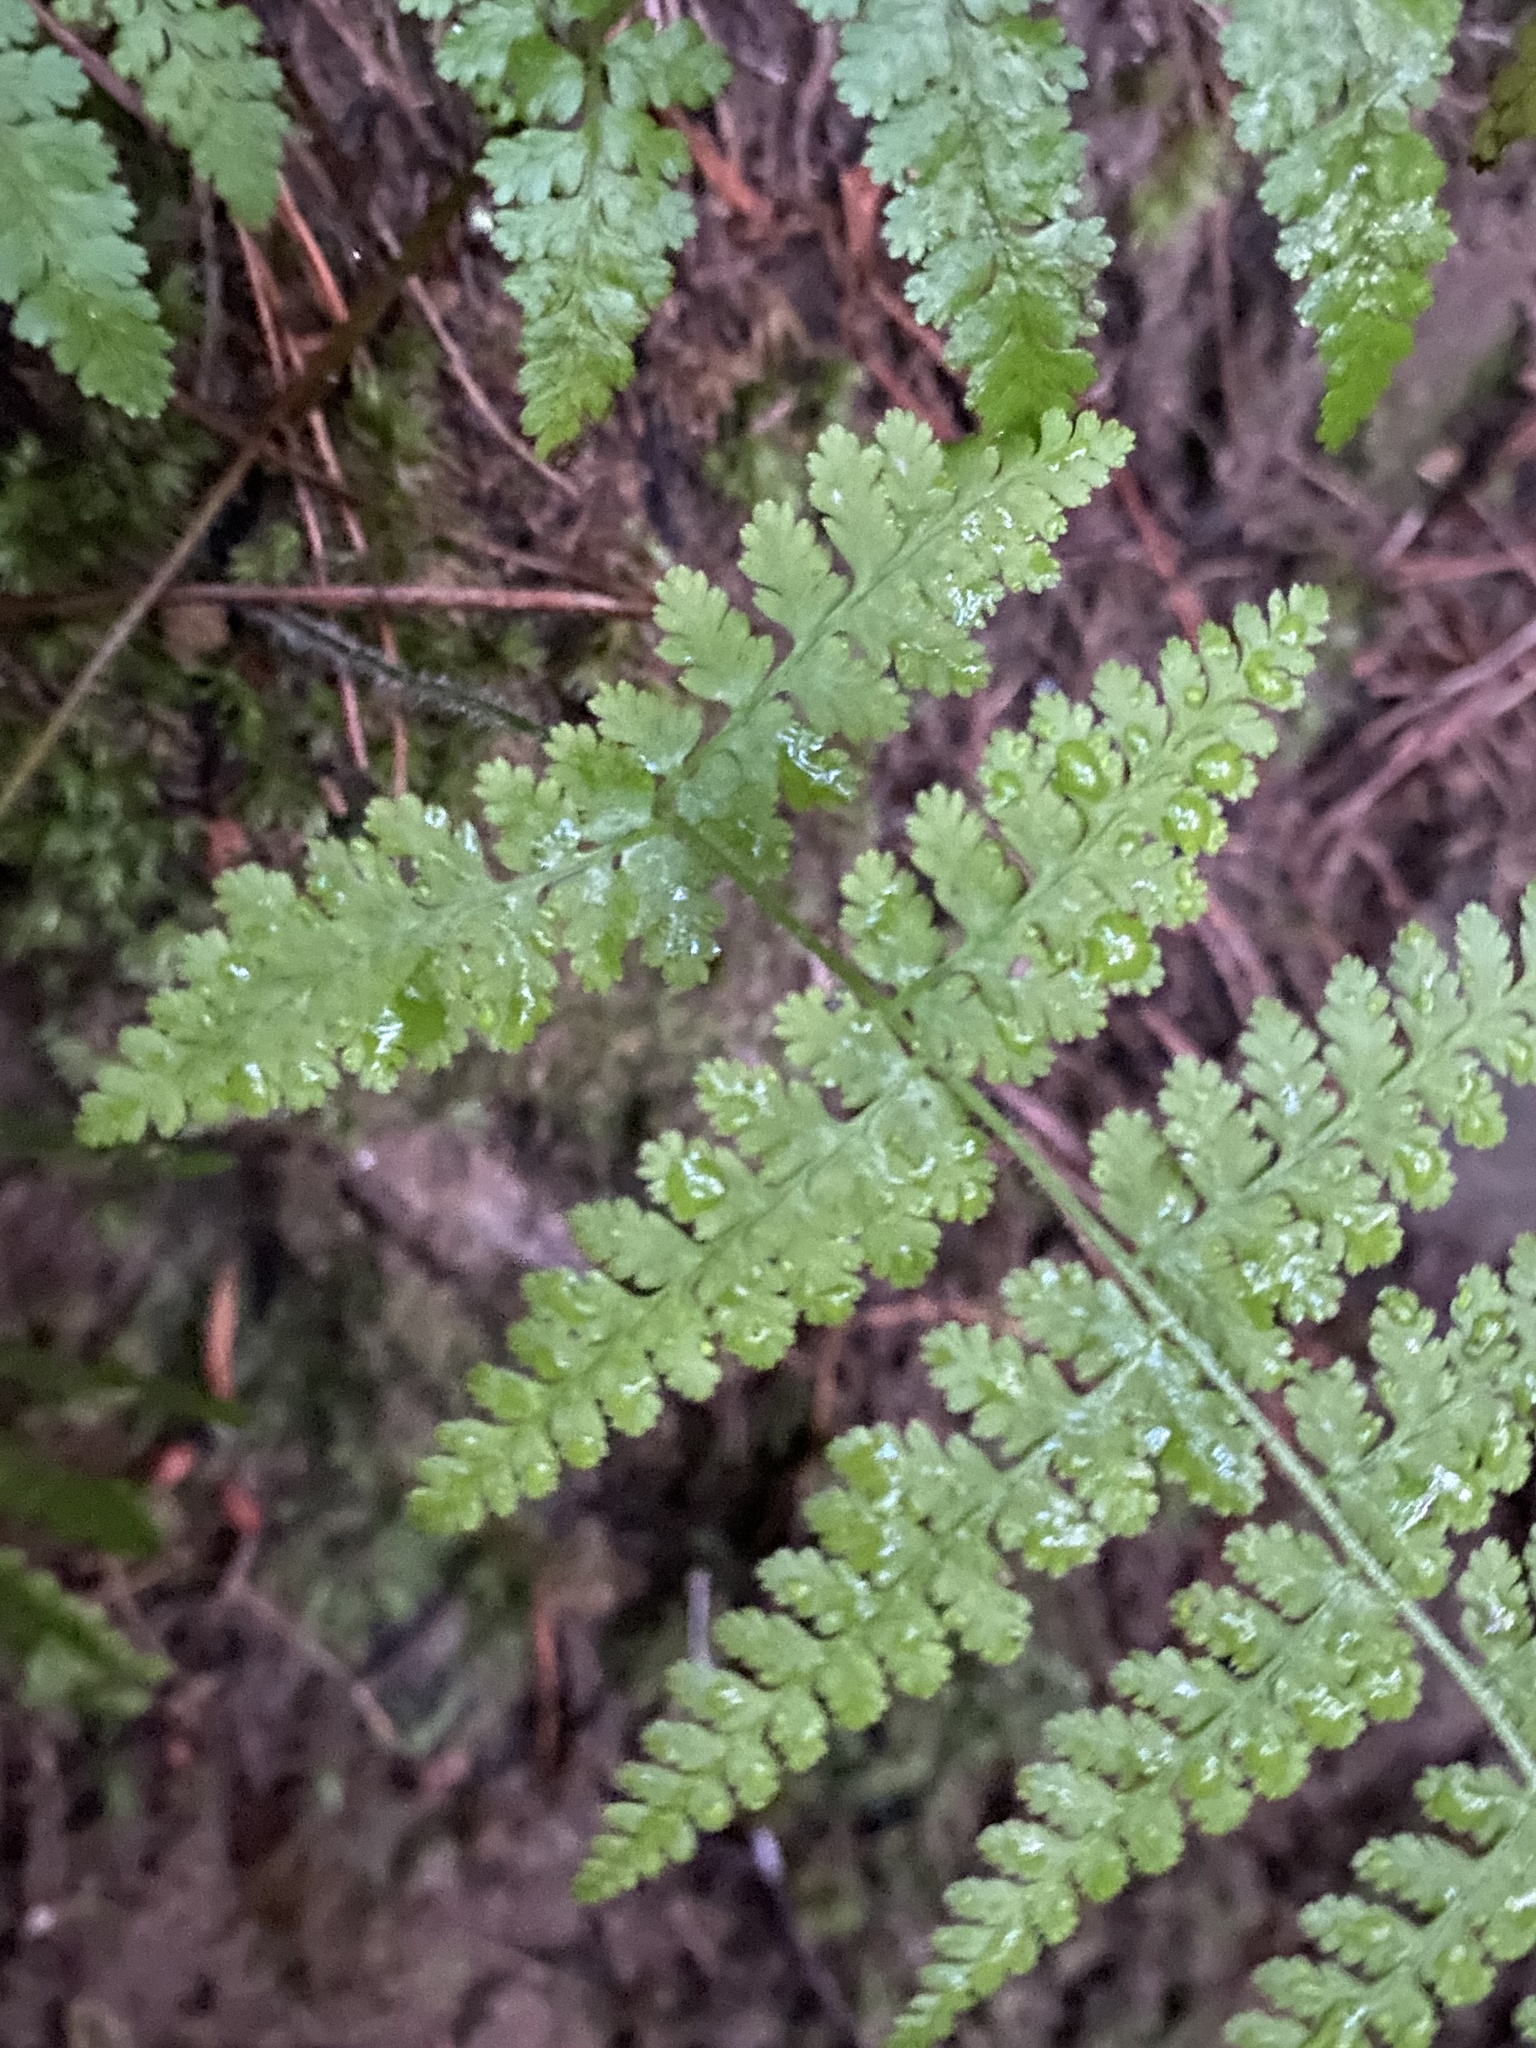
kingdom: Plantae
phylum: Tracheophyta
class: Polypodiopsida
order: Polypodiales
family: Dennstaedtiaceae
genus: Sitobolium
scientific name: Sitobolium punctilobum
